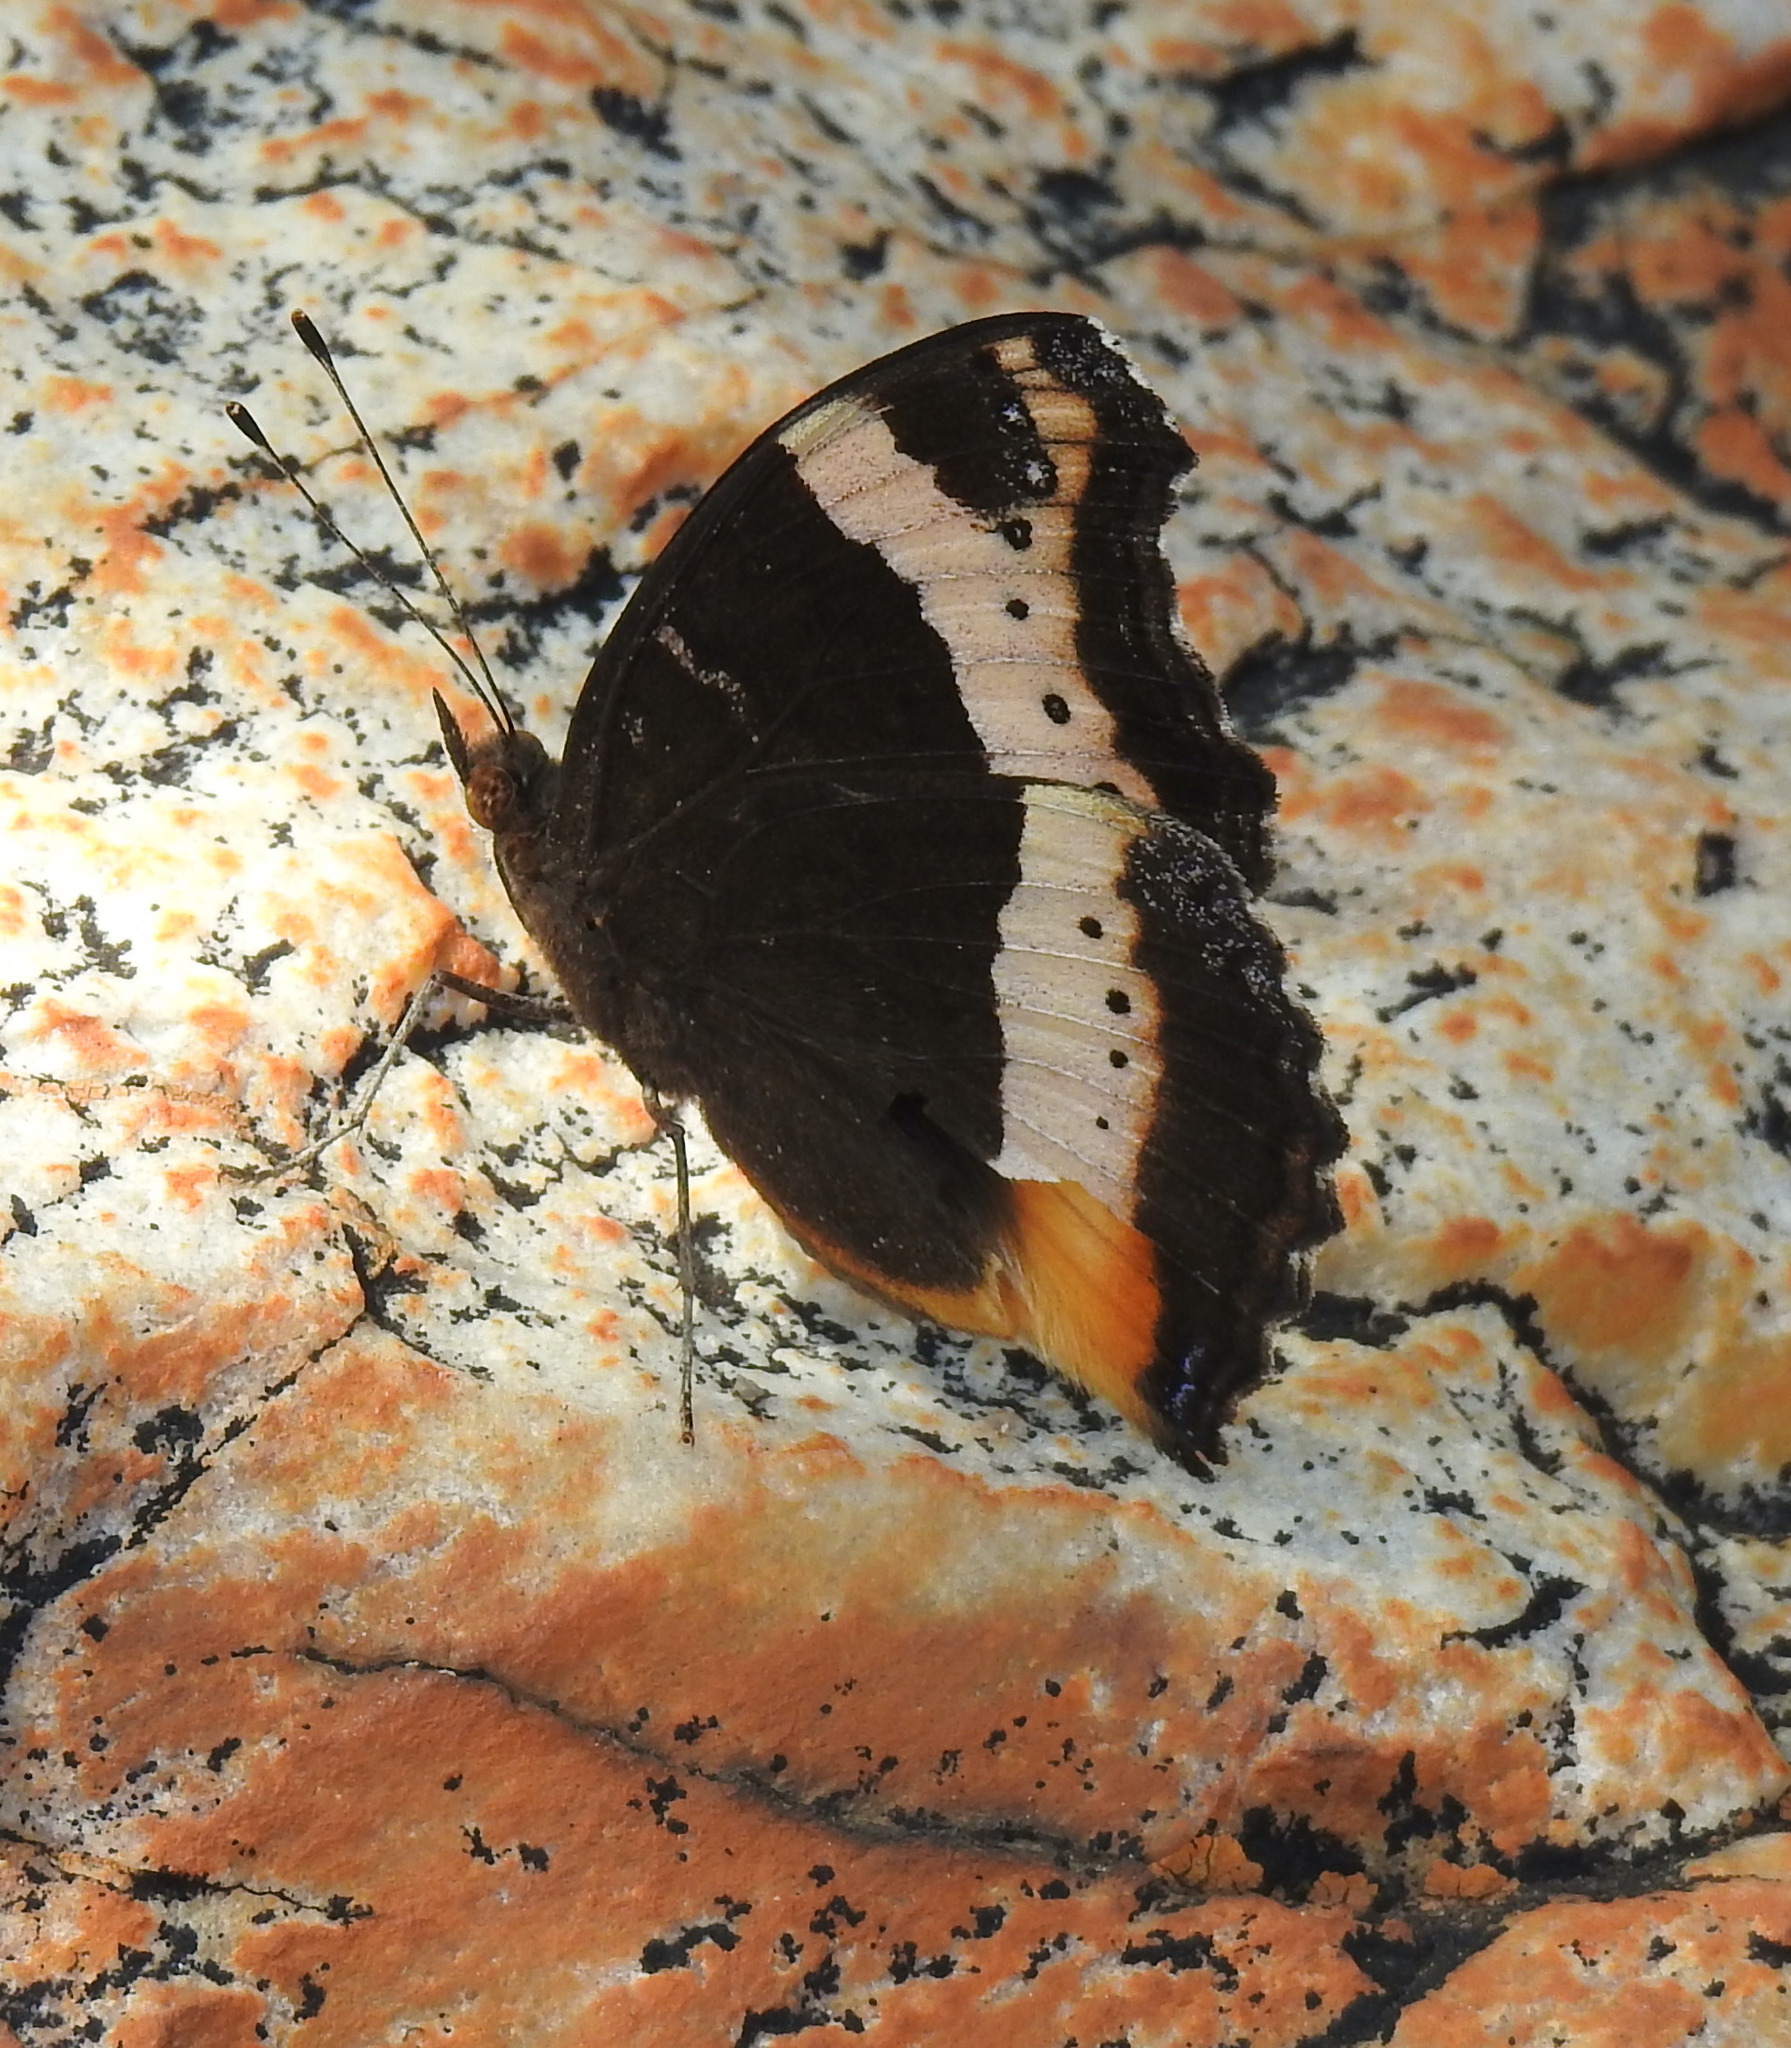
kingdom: Animalia
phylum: Arthropoda
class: Insecta
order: Lepidoptera
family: Nymphalidae
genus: Junonia
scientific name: Junonia archesia
